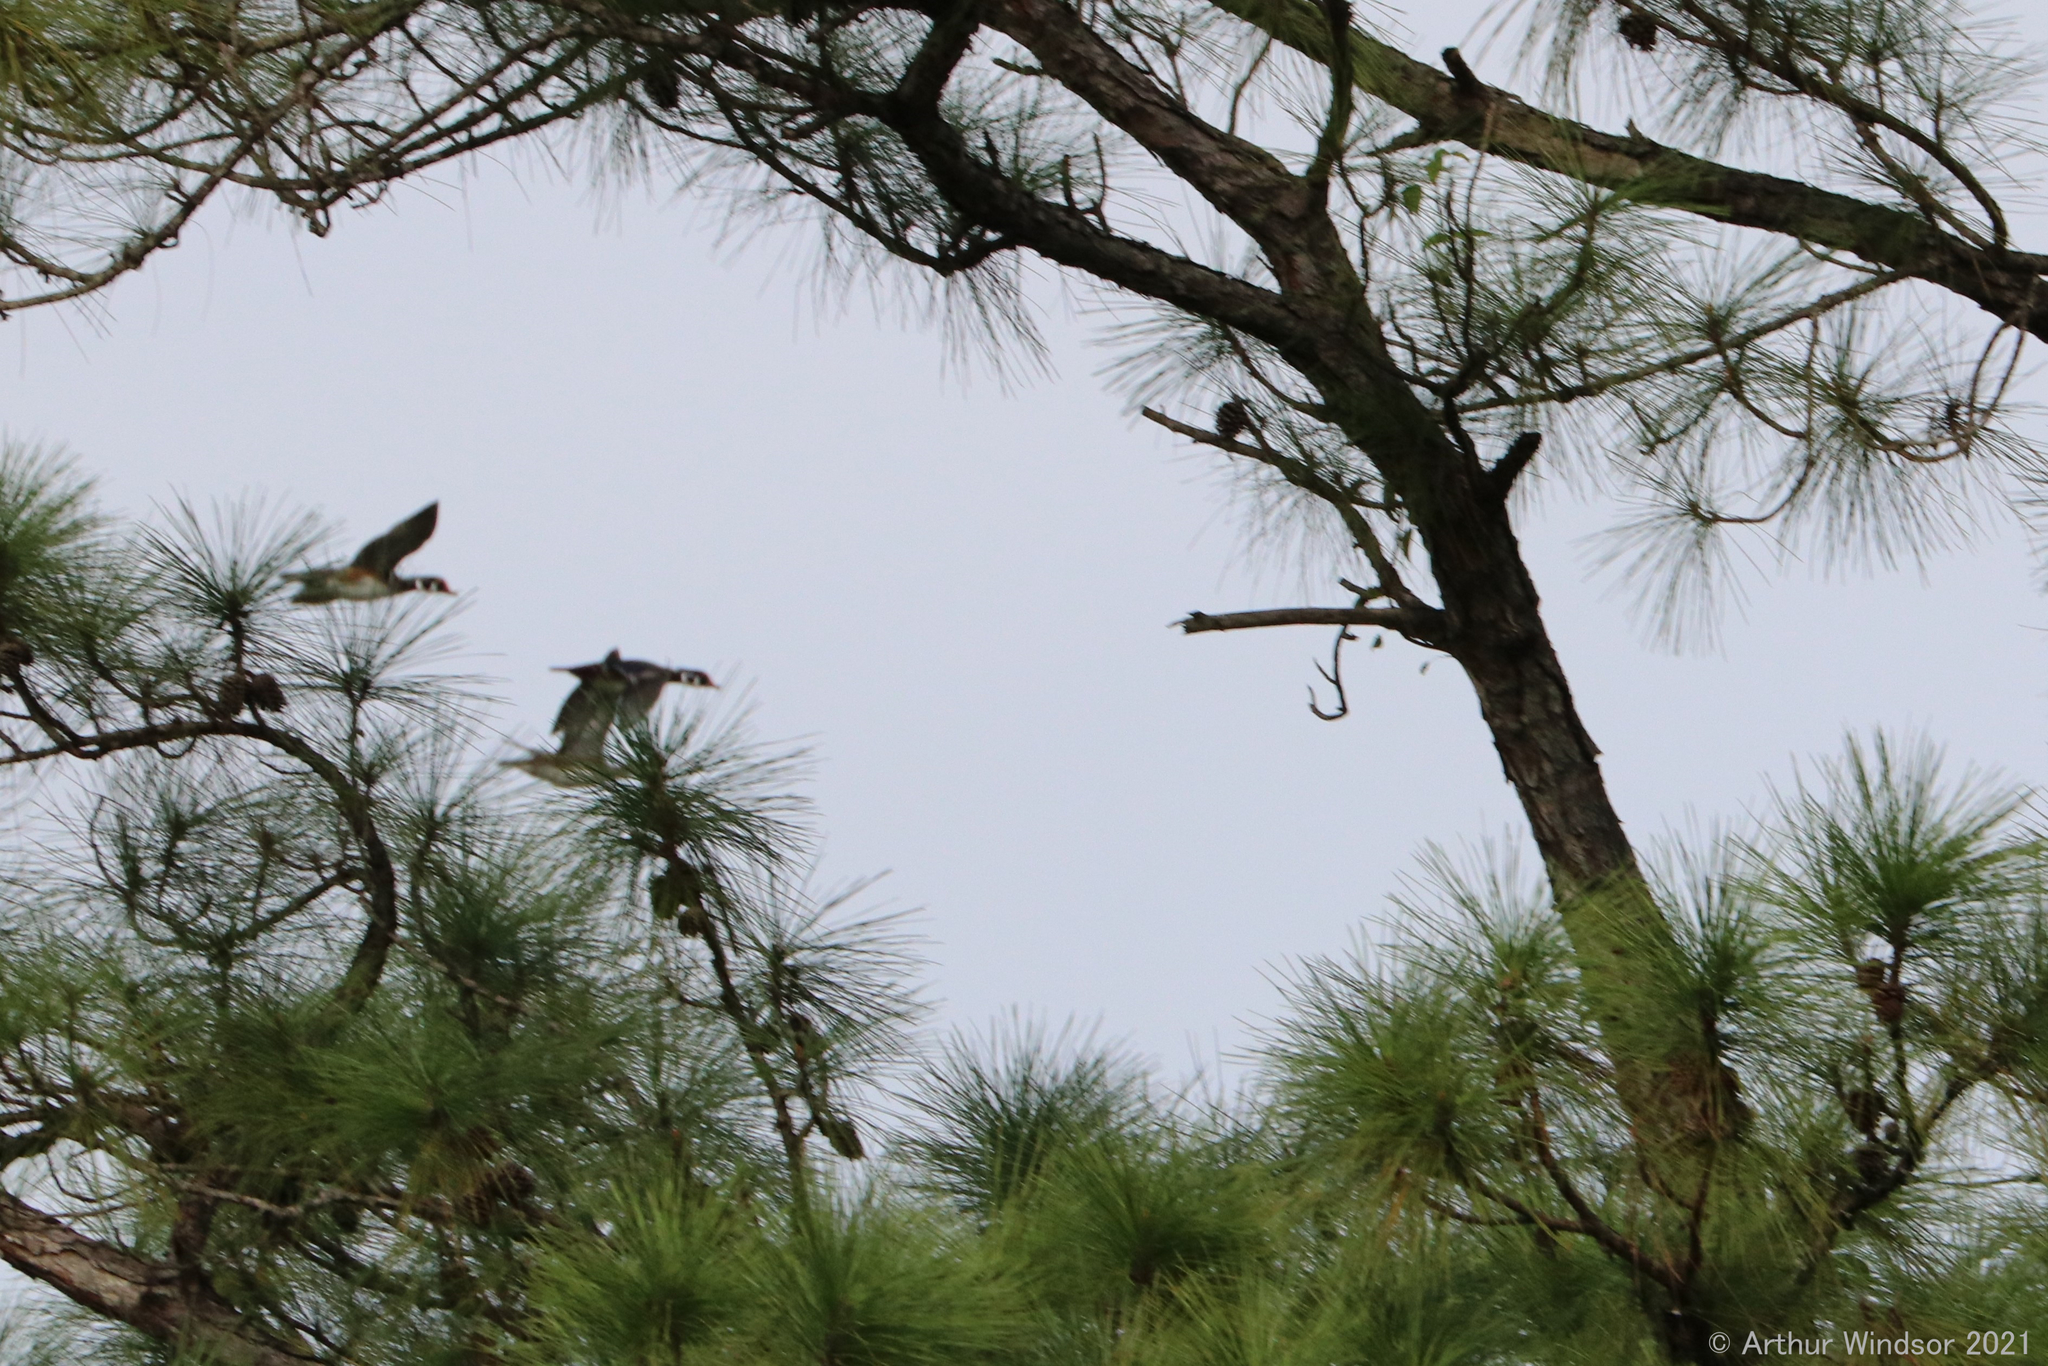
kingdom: Animalia
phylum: Chordata
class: Aves
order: Anseriformes
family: Anatidae
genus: Aix
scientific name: Aix sponsa
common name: Wood duck
